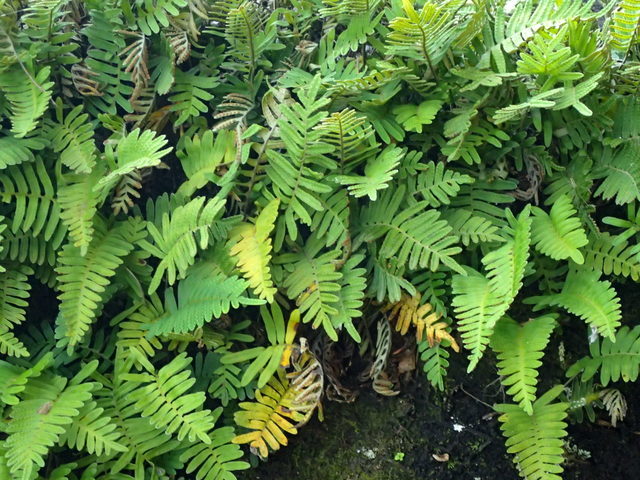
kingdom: Plantae
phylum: Tracheophyta
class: Polypodiopsida
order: Polypodiales
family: Polypodiaceae
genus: Pleopeltis
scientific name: Pleopeltis michauxiana
